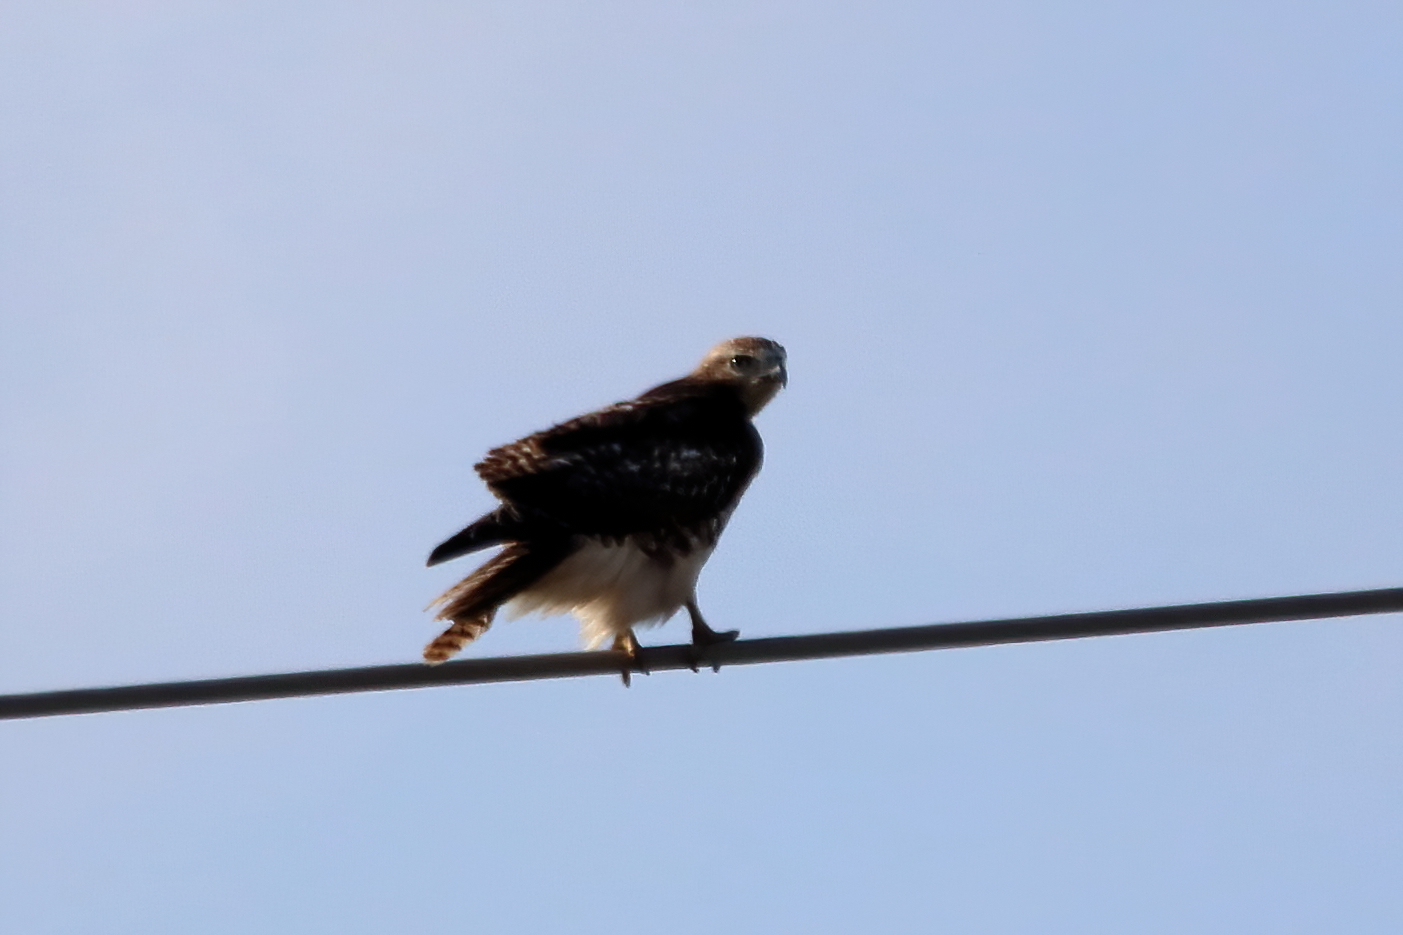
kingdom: Animalia
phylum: Chordata
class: Aves
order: Accipitriformes
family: Accipitridae
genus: Buteo
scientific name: Buteo jamaicensis
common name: Red-tailed hawk
